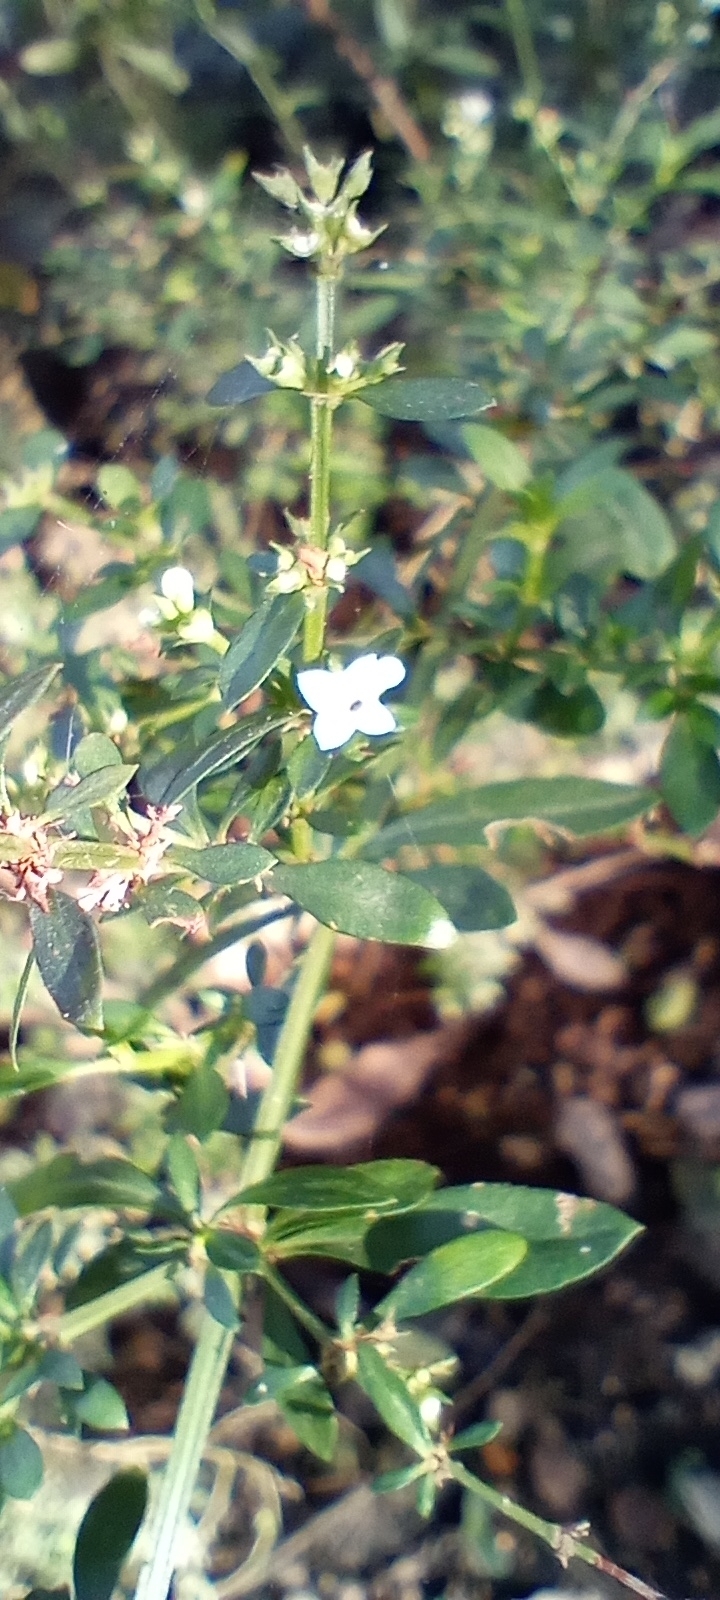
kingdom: Plantae
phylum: Tracheophyta
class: Magnoliopsida
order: Gentianales
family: Rubiaceae
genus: Galianthe
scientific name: Galianthe brasiliensis
